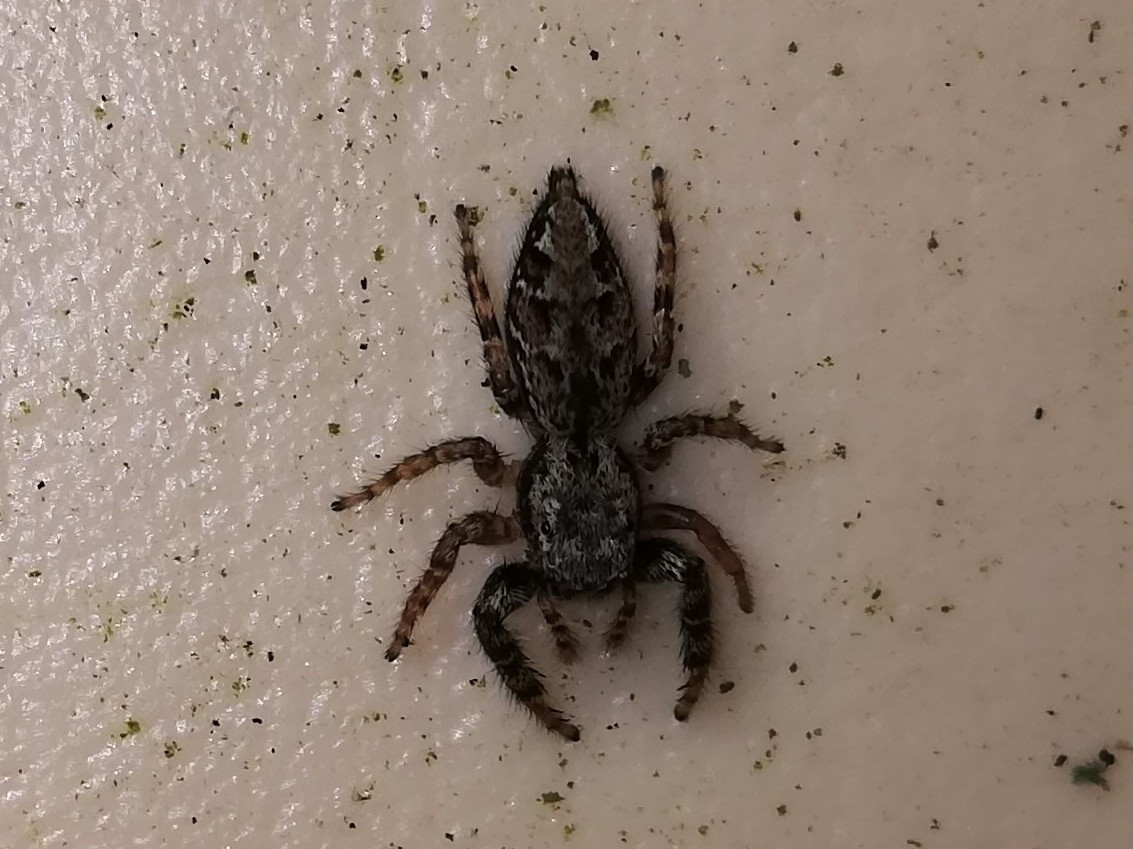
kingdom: Animalia
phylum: Arthropoda
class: Arachnida
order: Araneae
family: Salticidae
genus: Marpissa
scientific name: Marpissa muscosa
